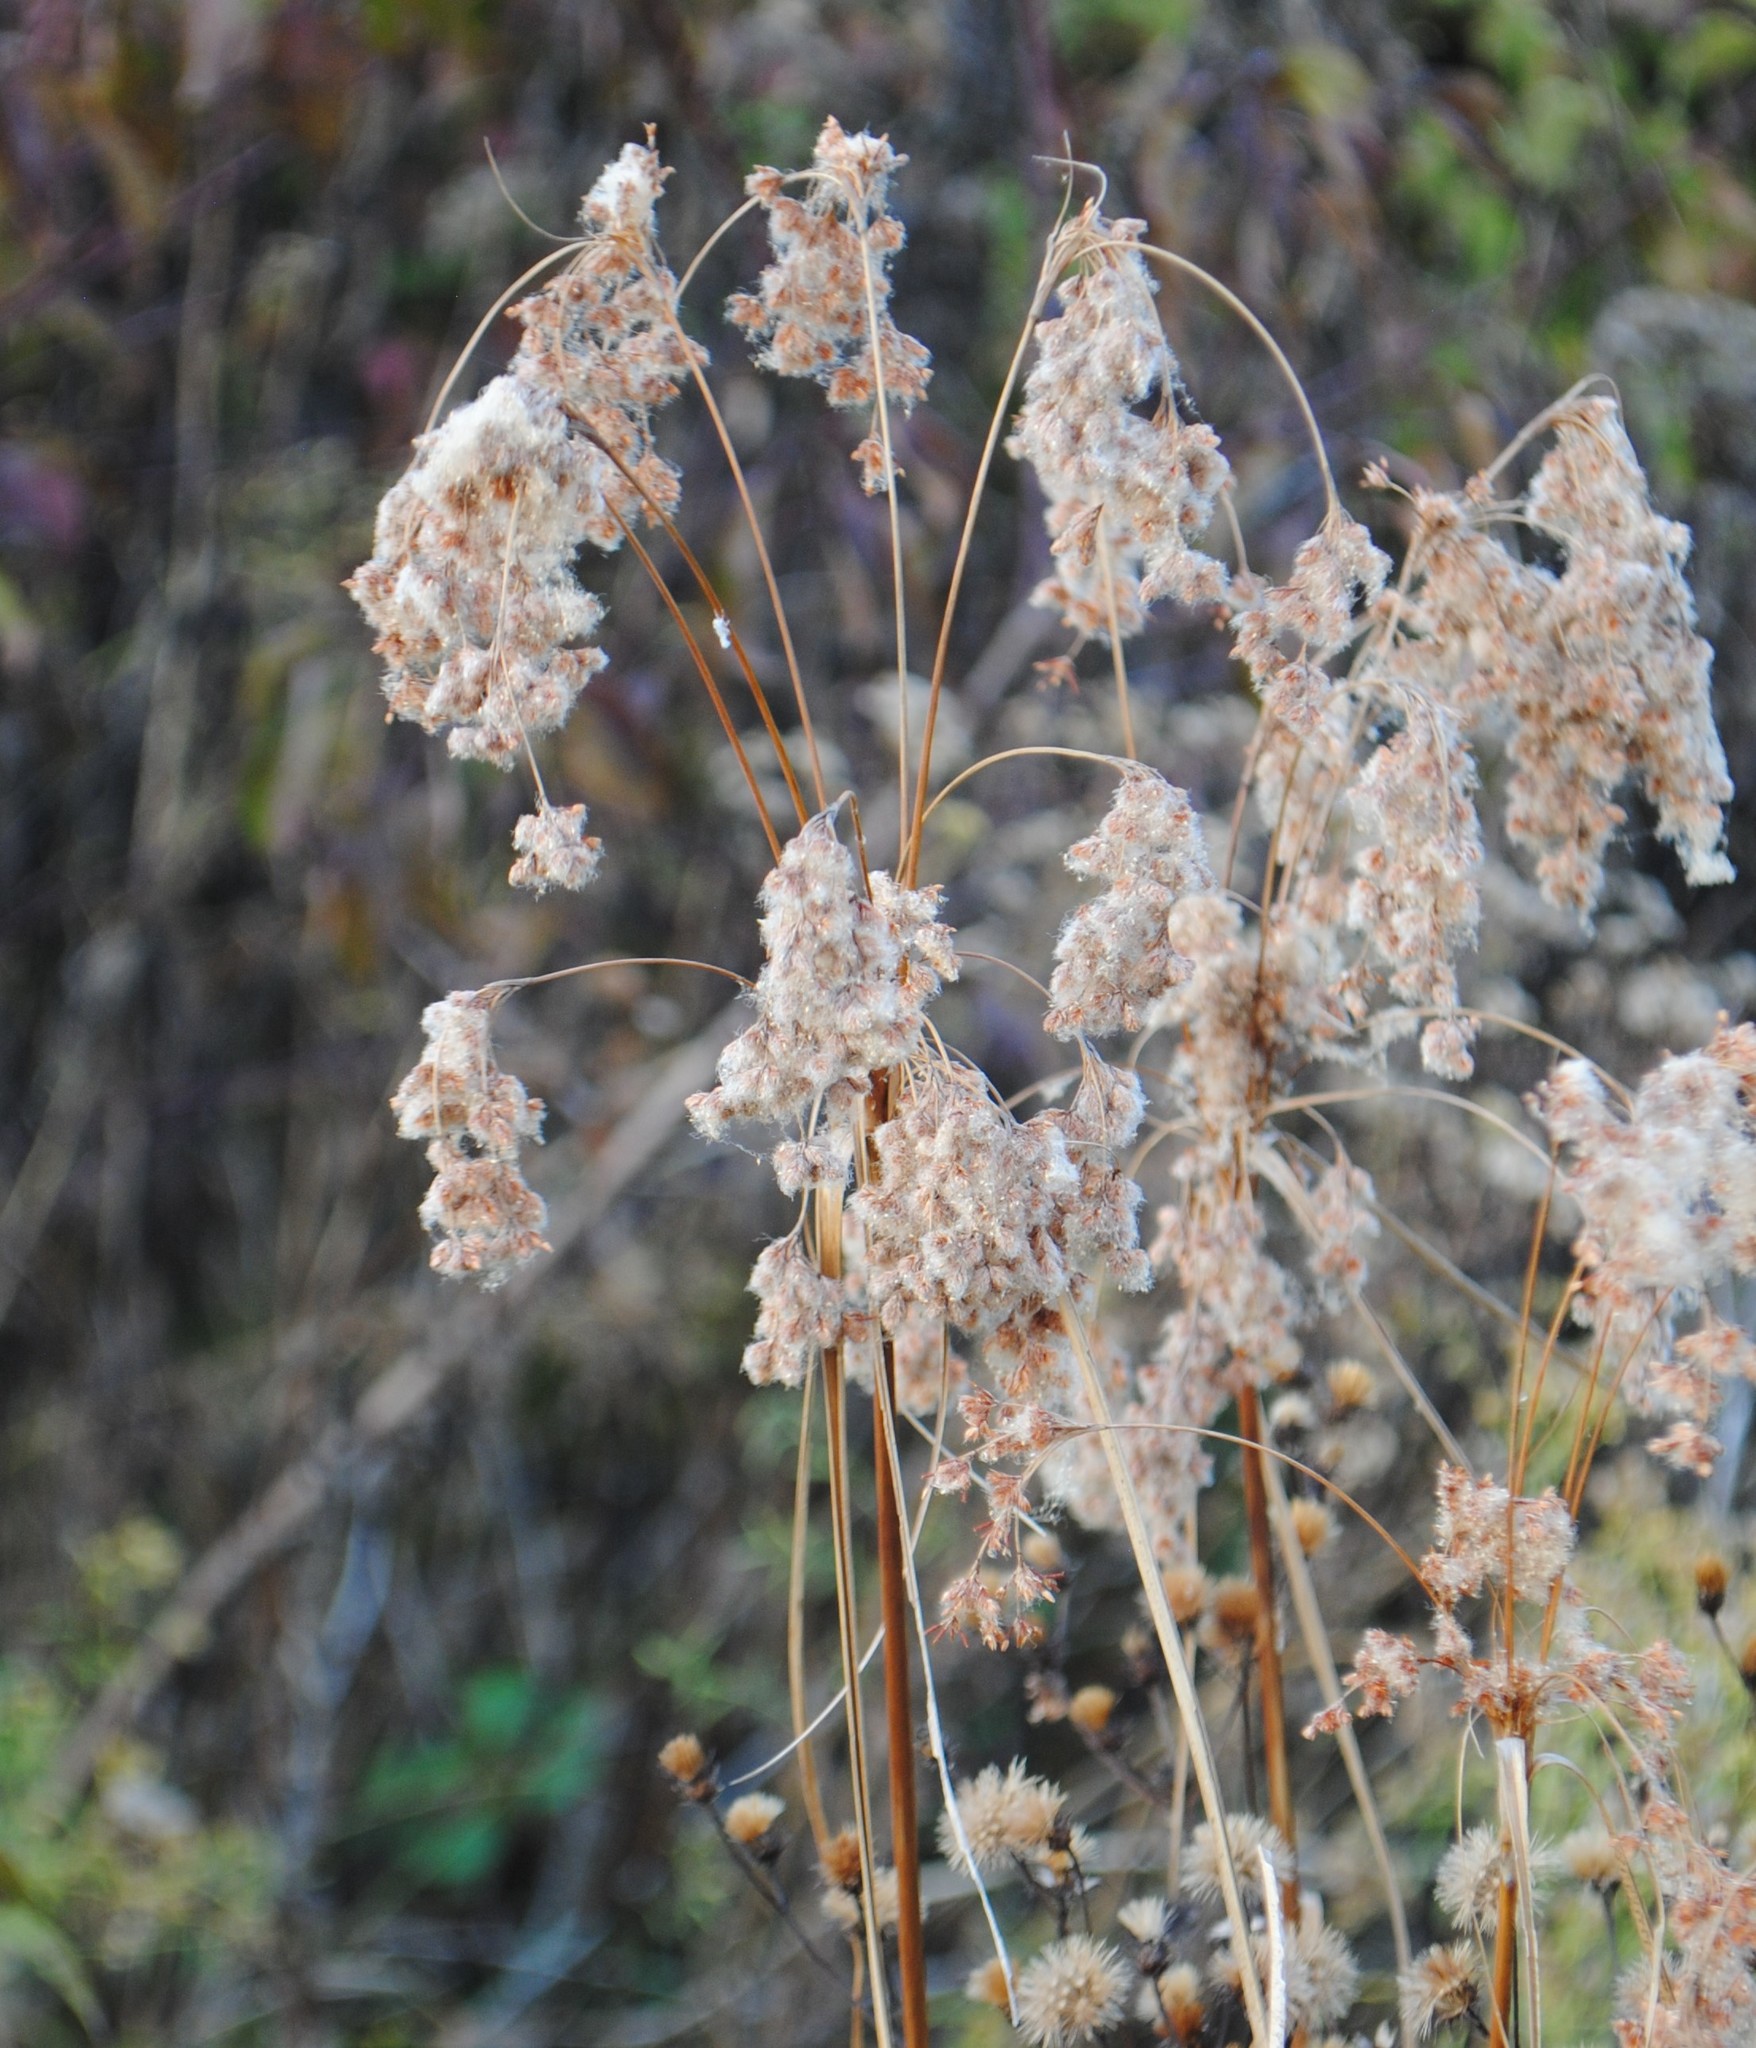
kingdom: Plantae
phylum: Tracheophyta
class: Liliopsida
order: Poales
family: Cyperaceae
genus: Scirpus
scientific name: Scirpus cyperinus
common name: Black-sheathed bulrush
